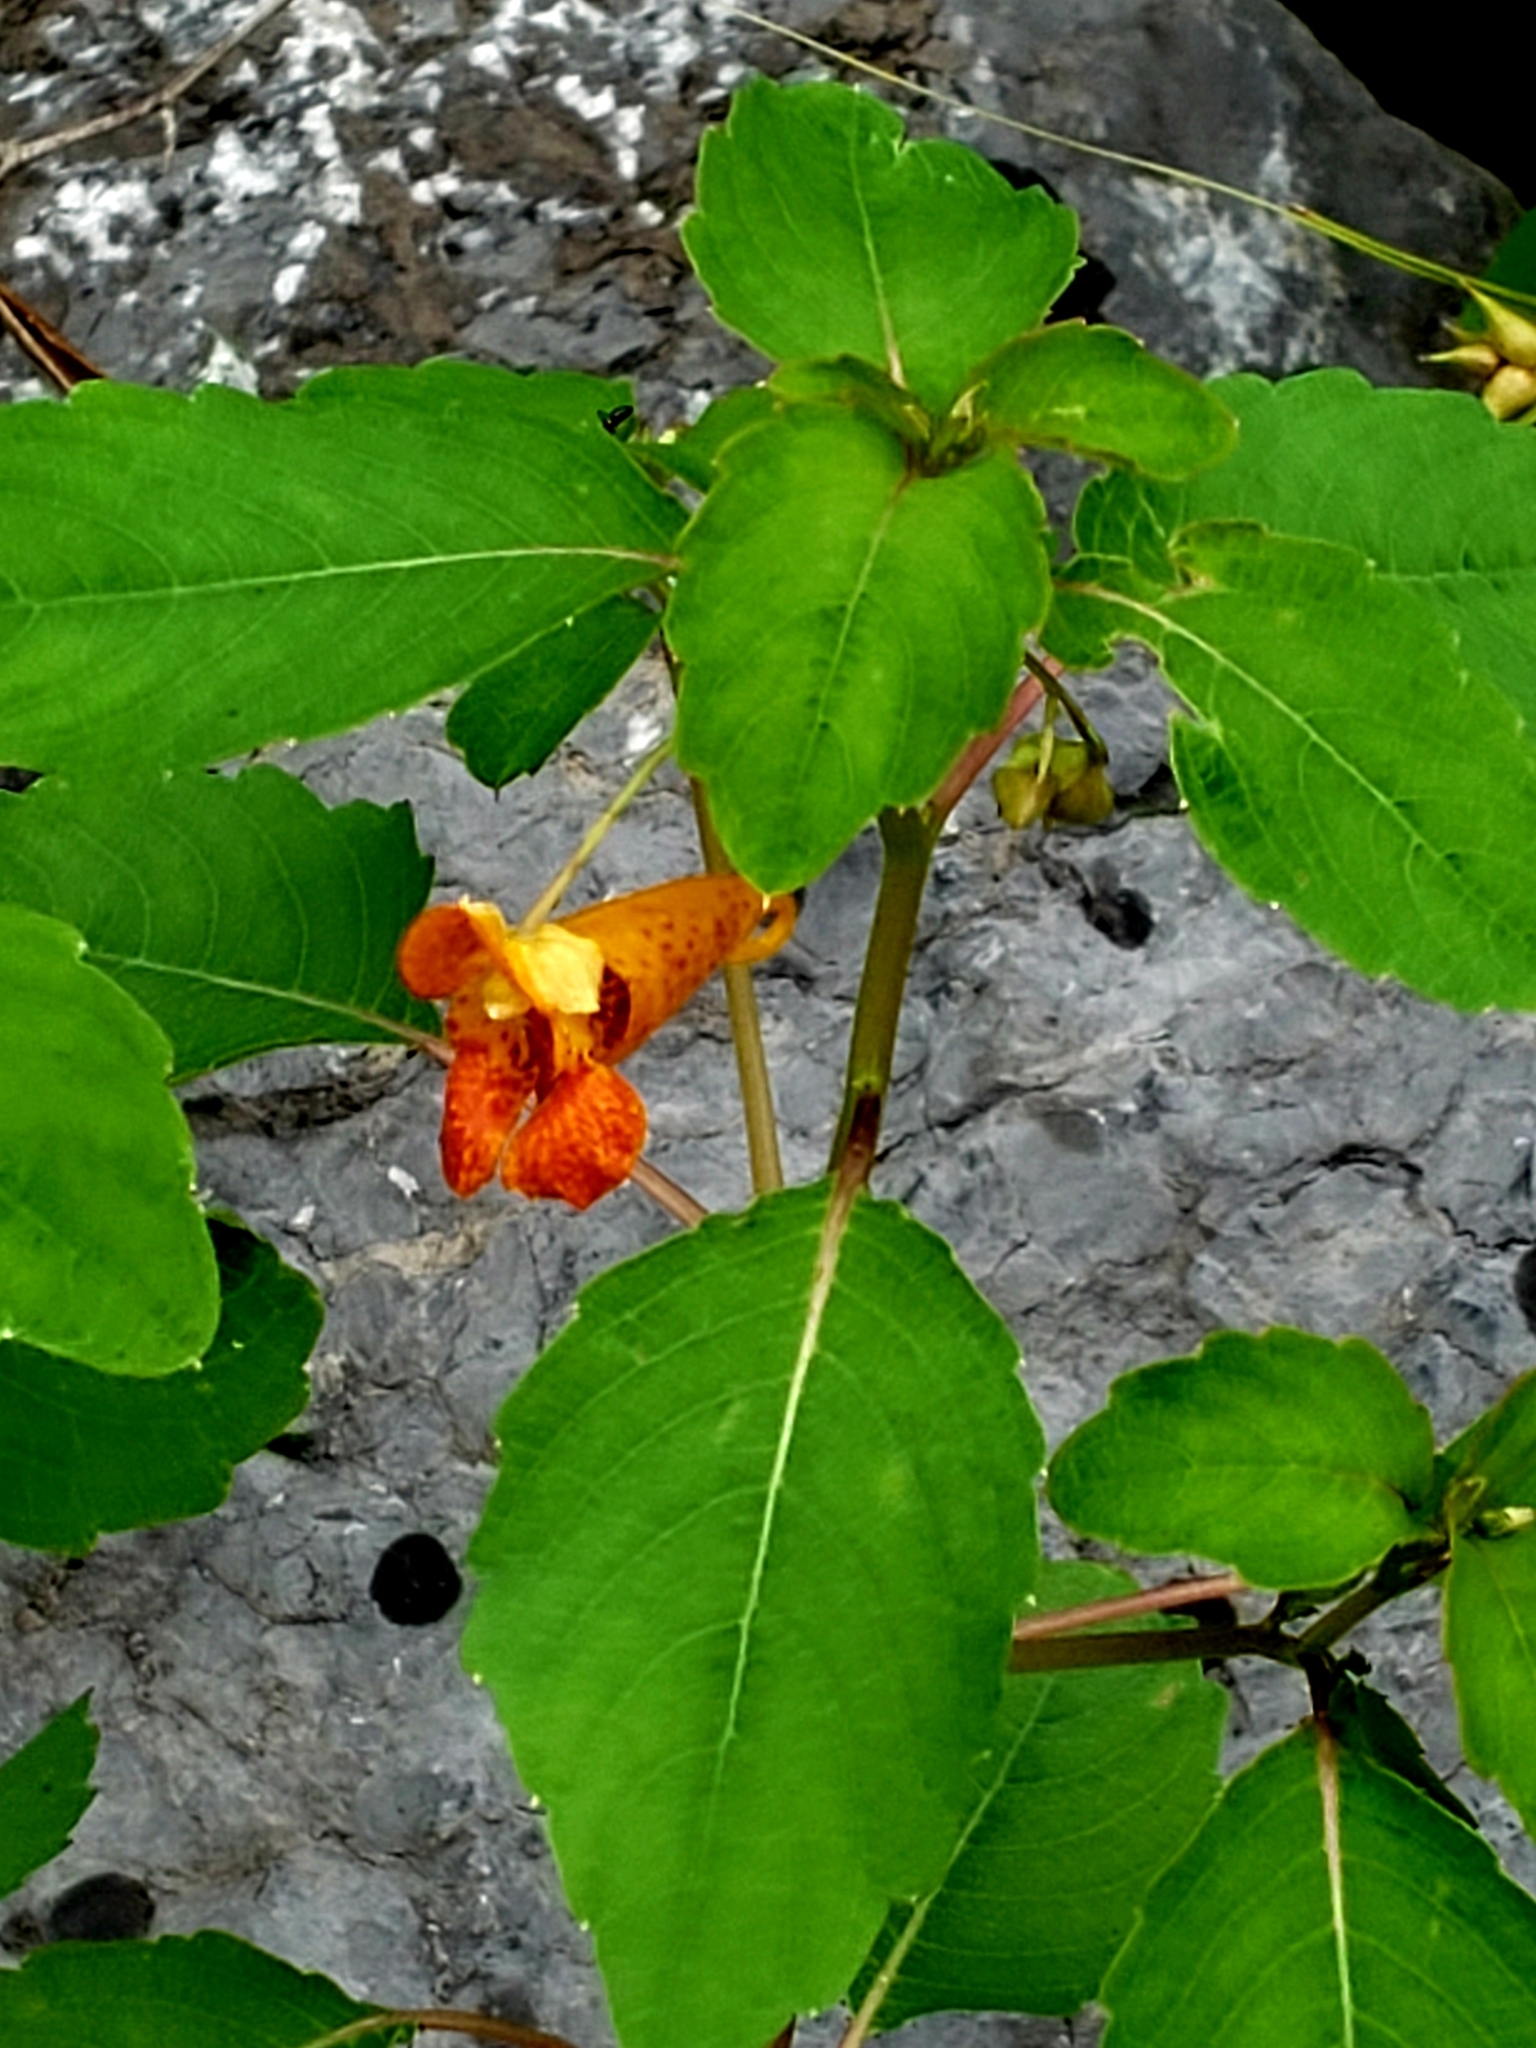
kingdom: Plantae
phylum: Tracheophyta
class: Magnoliopsida
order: Ericales
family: Balsaminaceae
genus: Impatiens
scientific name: Impatiens capensis
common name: Orange balsam
